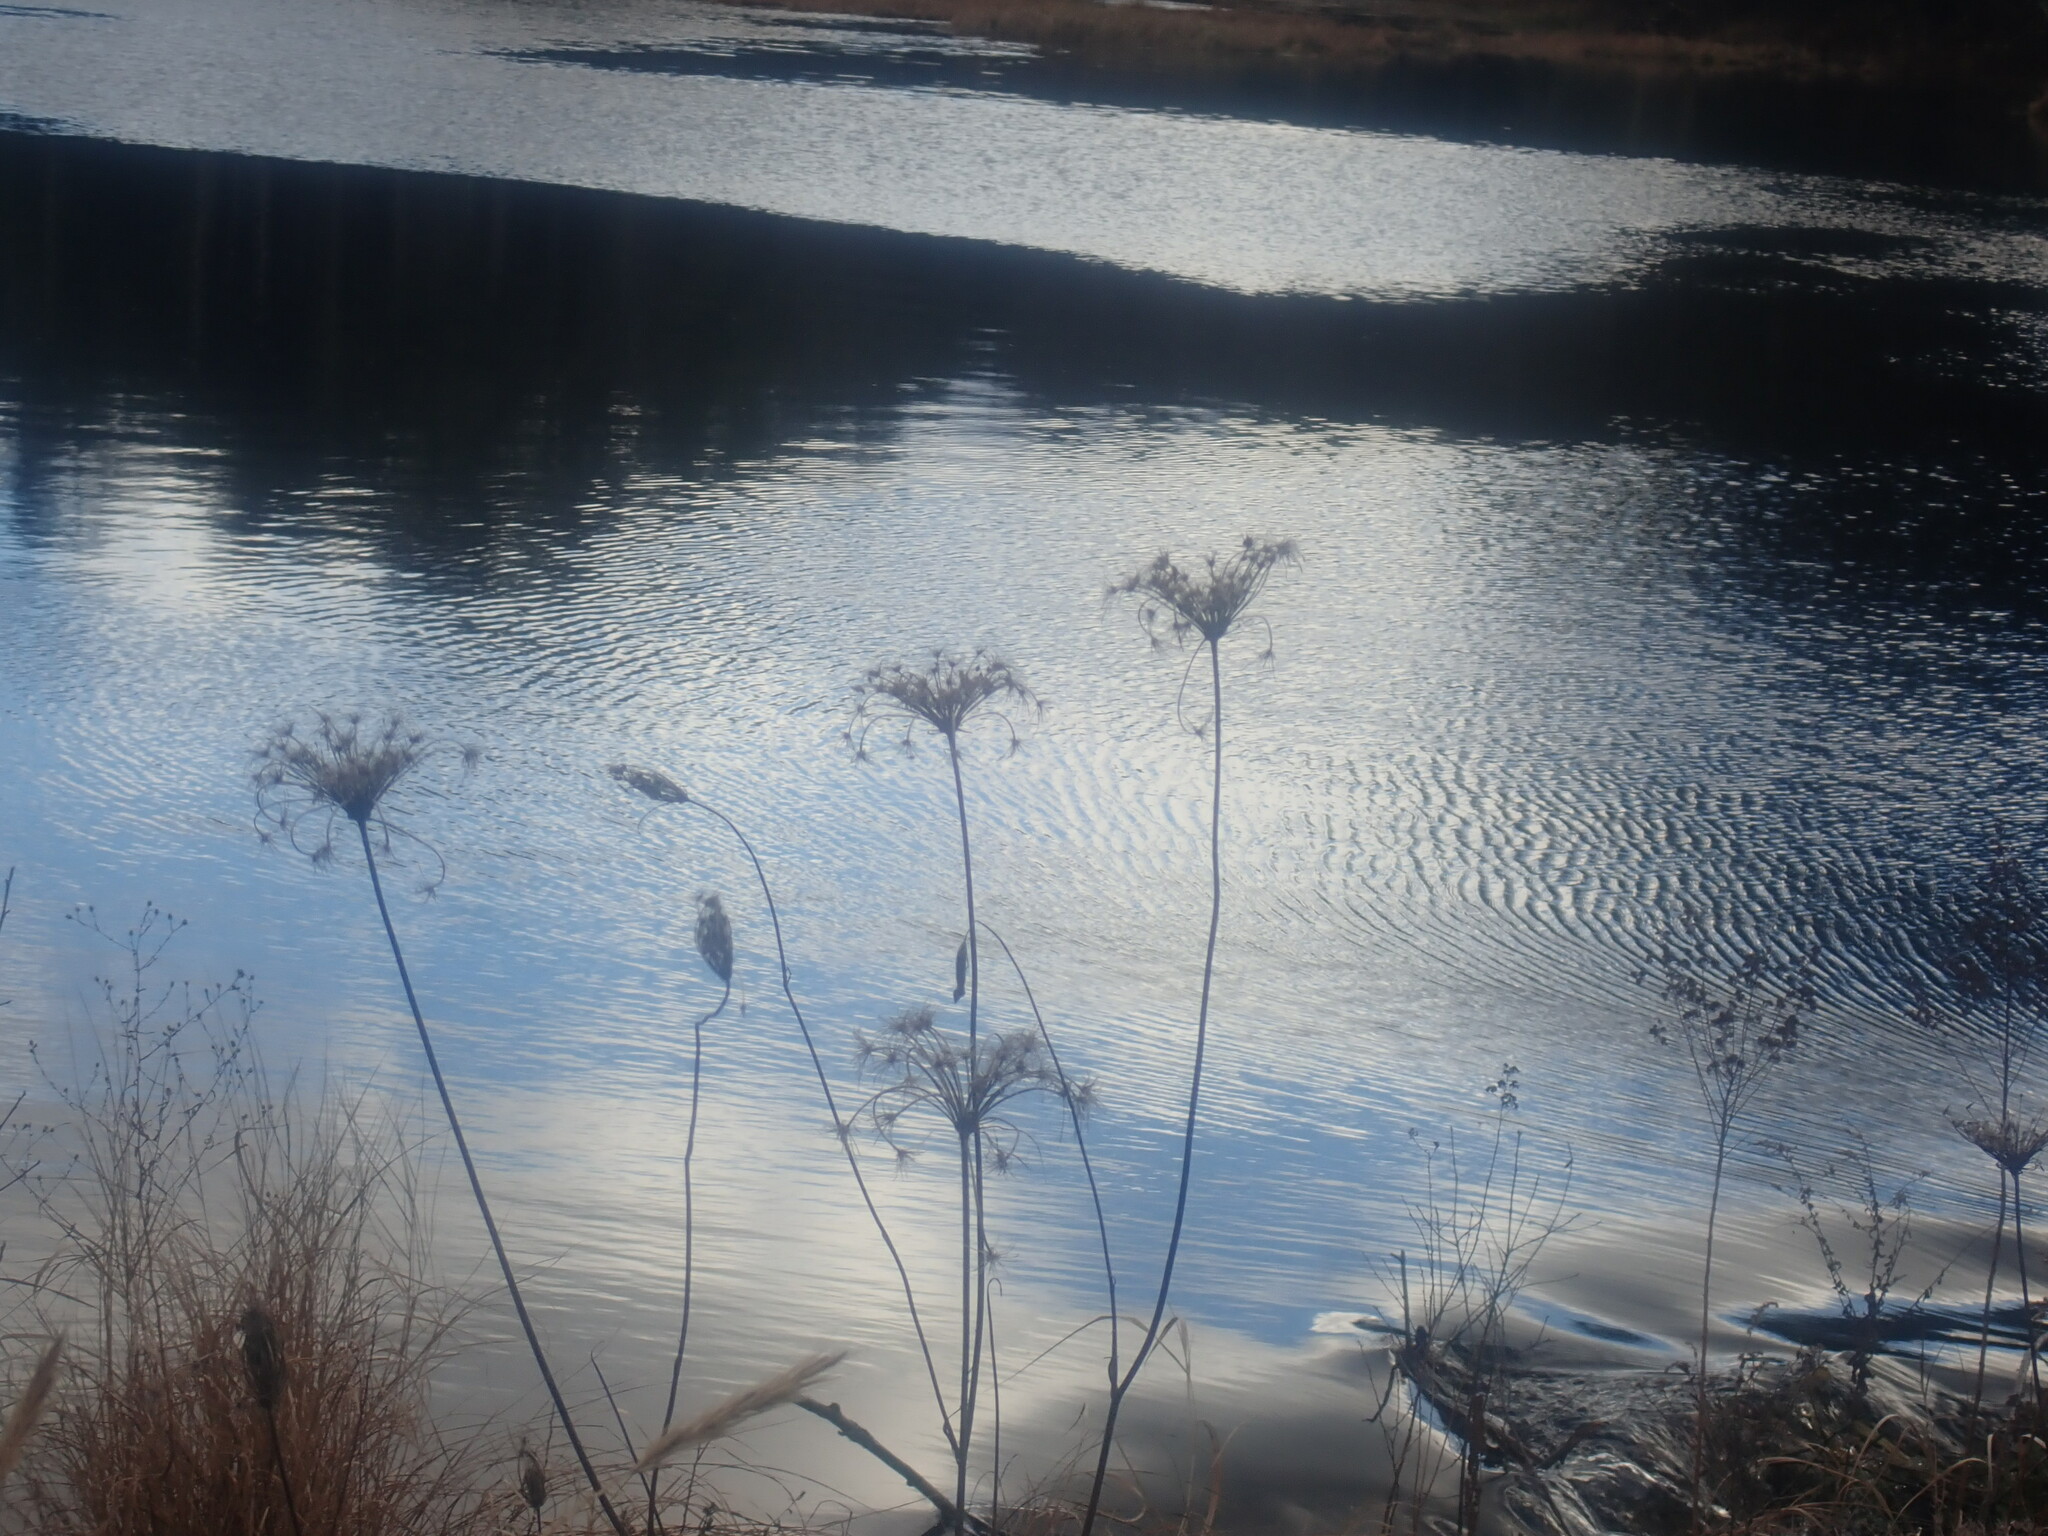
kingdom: Plantae
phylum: Tracheophyta
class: Magnoliopsida
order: Apiales
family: Apiaceae
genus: Daucus
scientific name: Daucus carota
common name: Wild carrot
